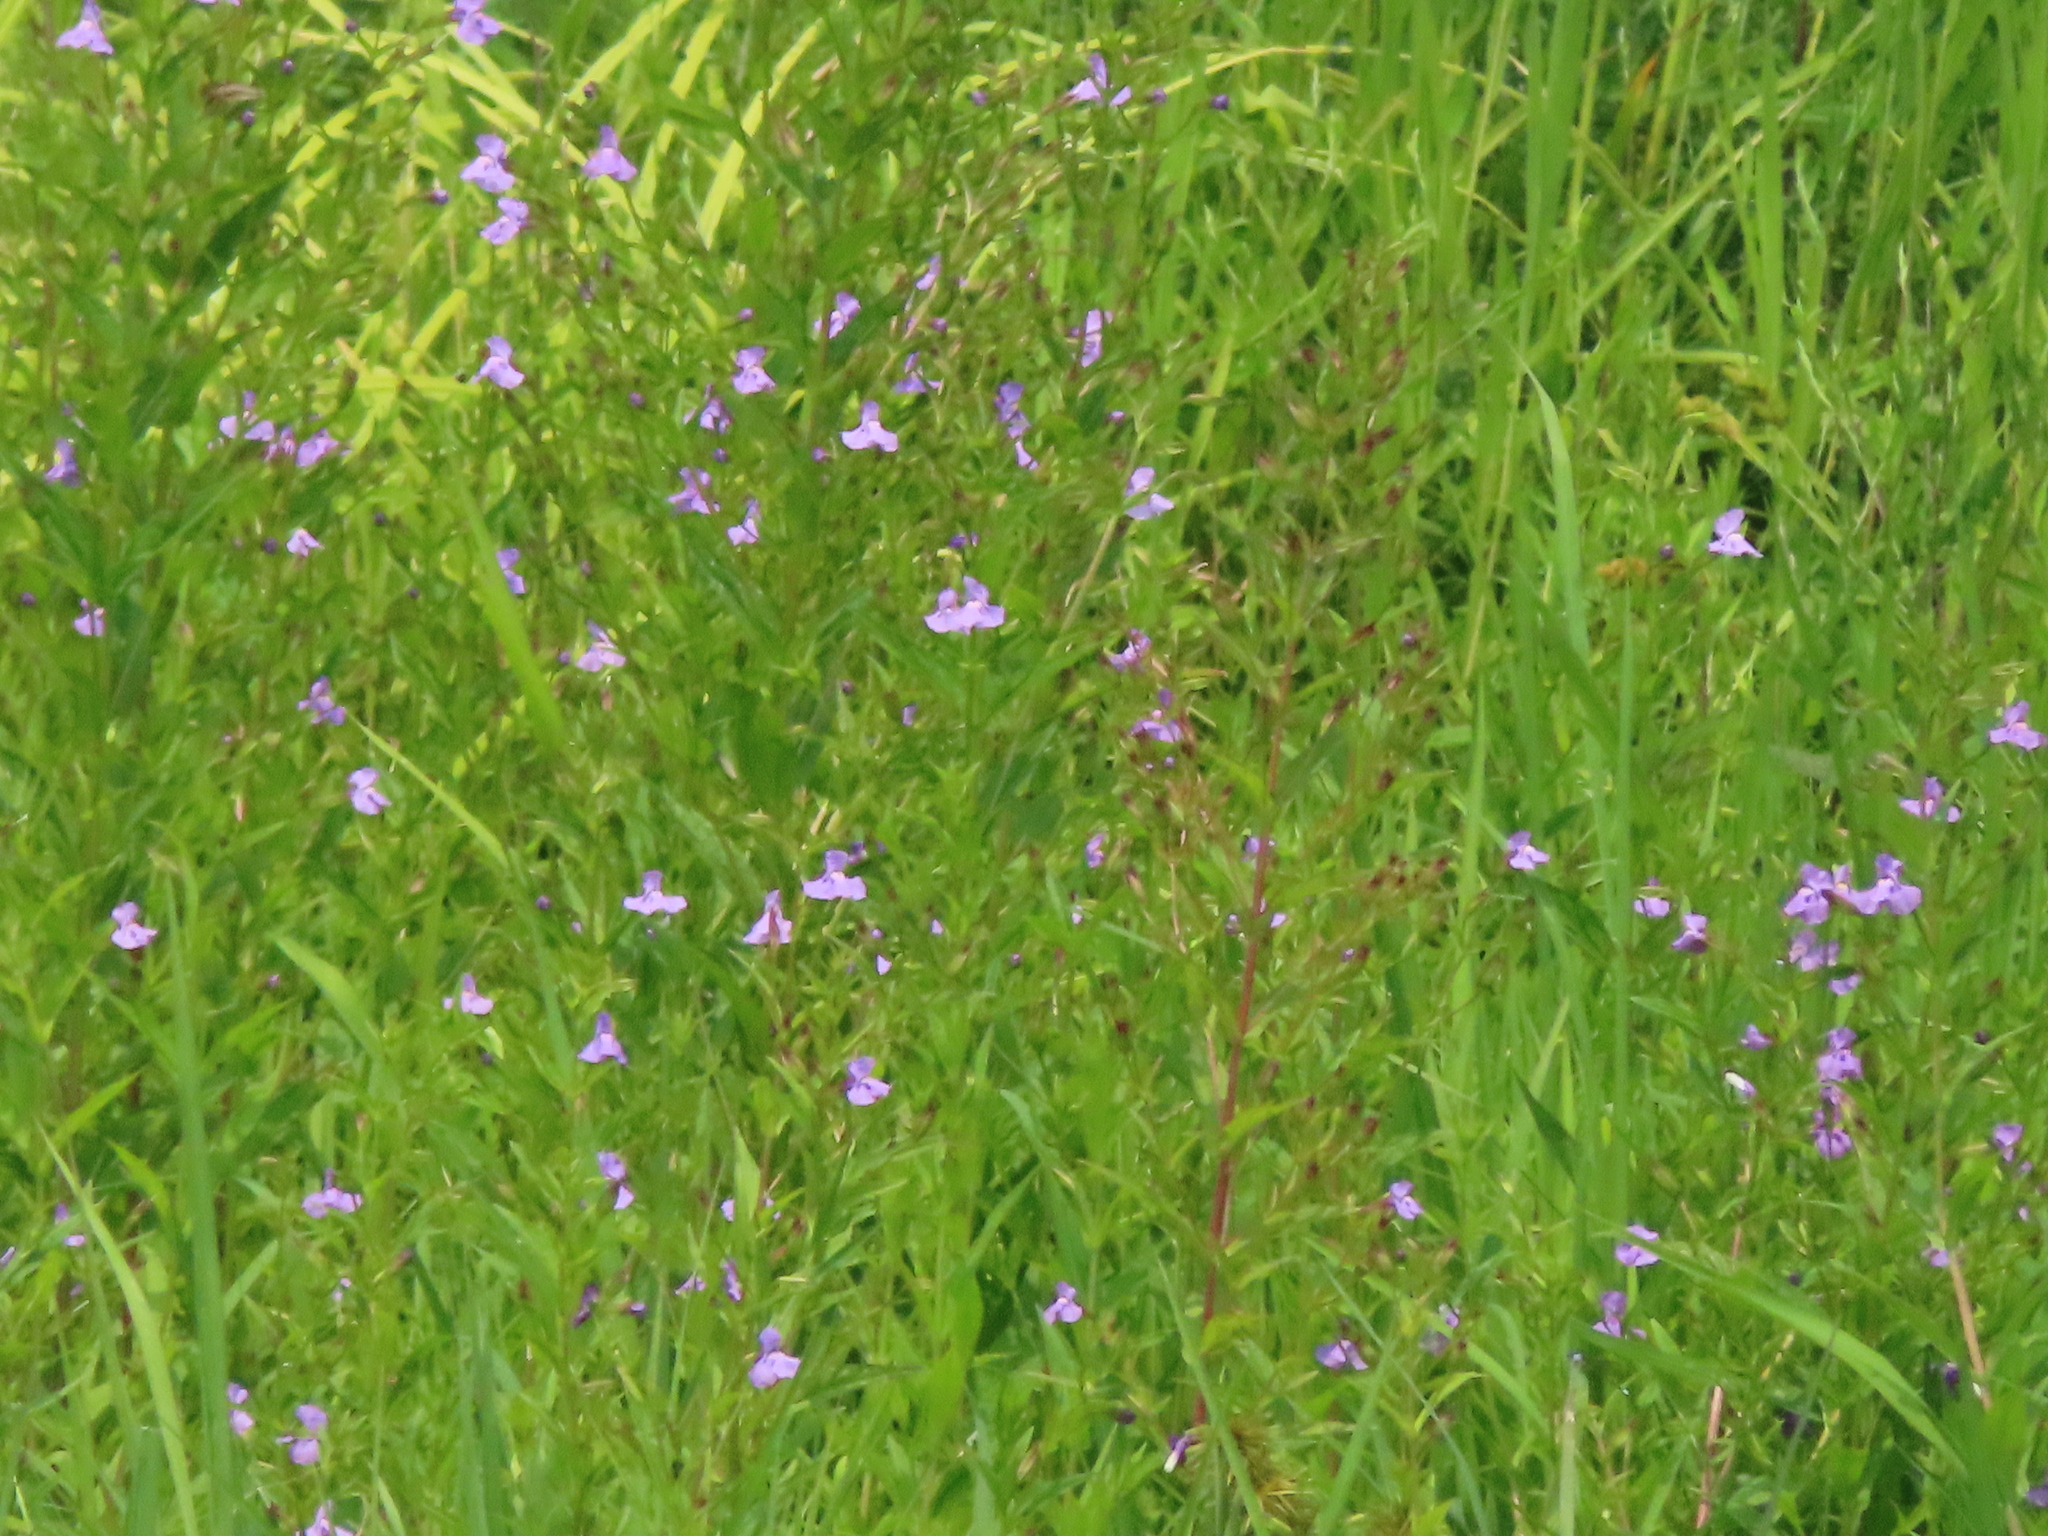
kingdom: Plantae
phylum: Tracheophyta
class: Magnoliopsida
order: Lamiales
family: Phrymaceae
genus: Mimulus
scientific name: Mimulus ringens
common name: Allegheny monkeyflower
